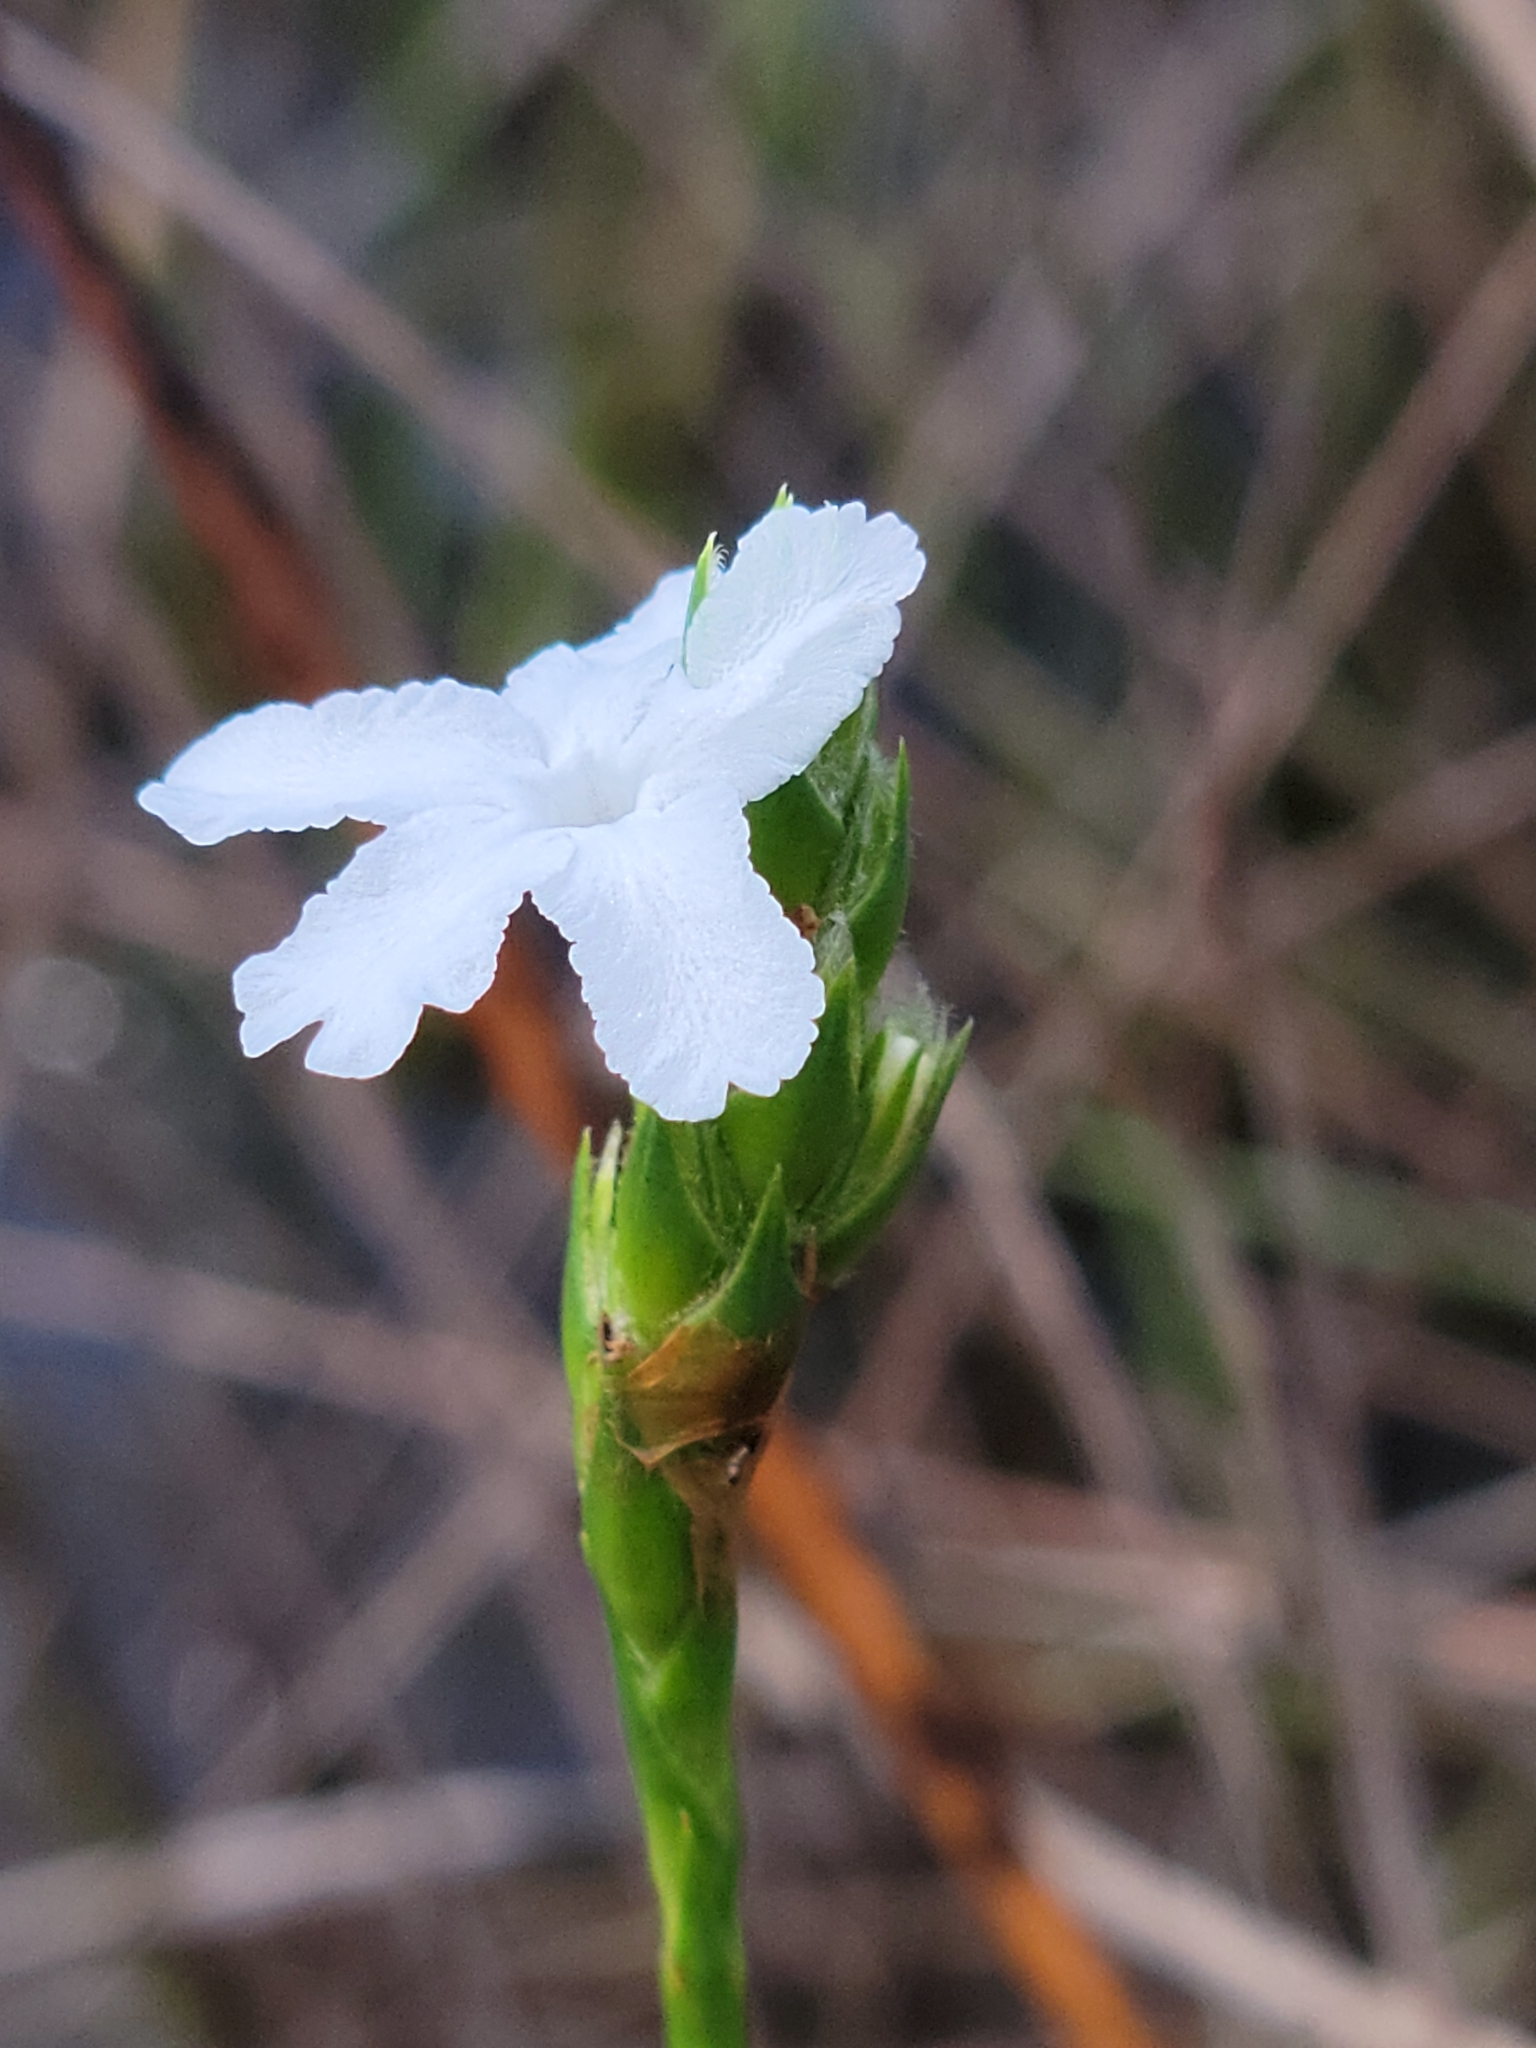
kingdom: Plantae
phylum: Tracheophyta
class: Magnoliopsida
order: Lamiales
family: Acanthaceae
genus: Elytraria
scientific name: Elytraria caroliniensis
